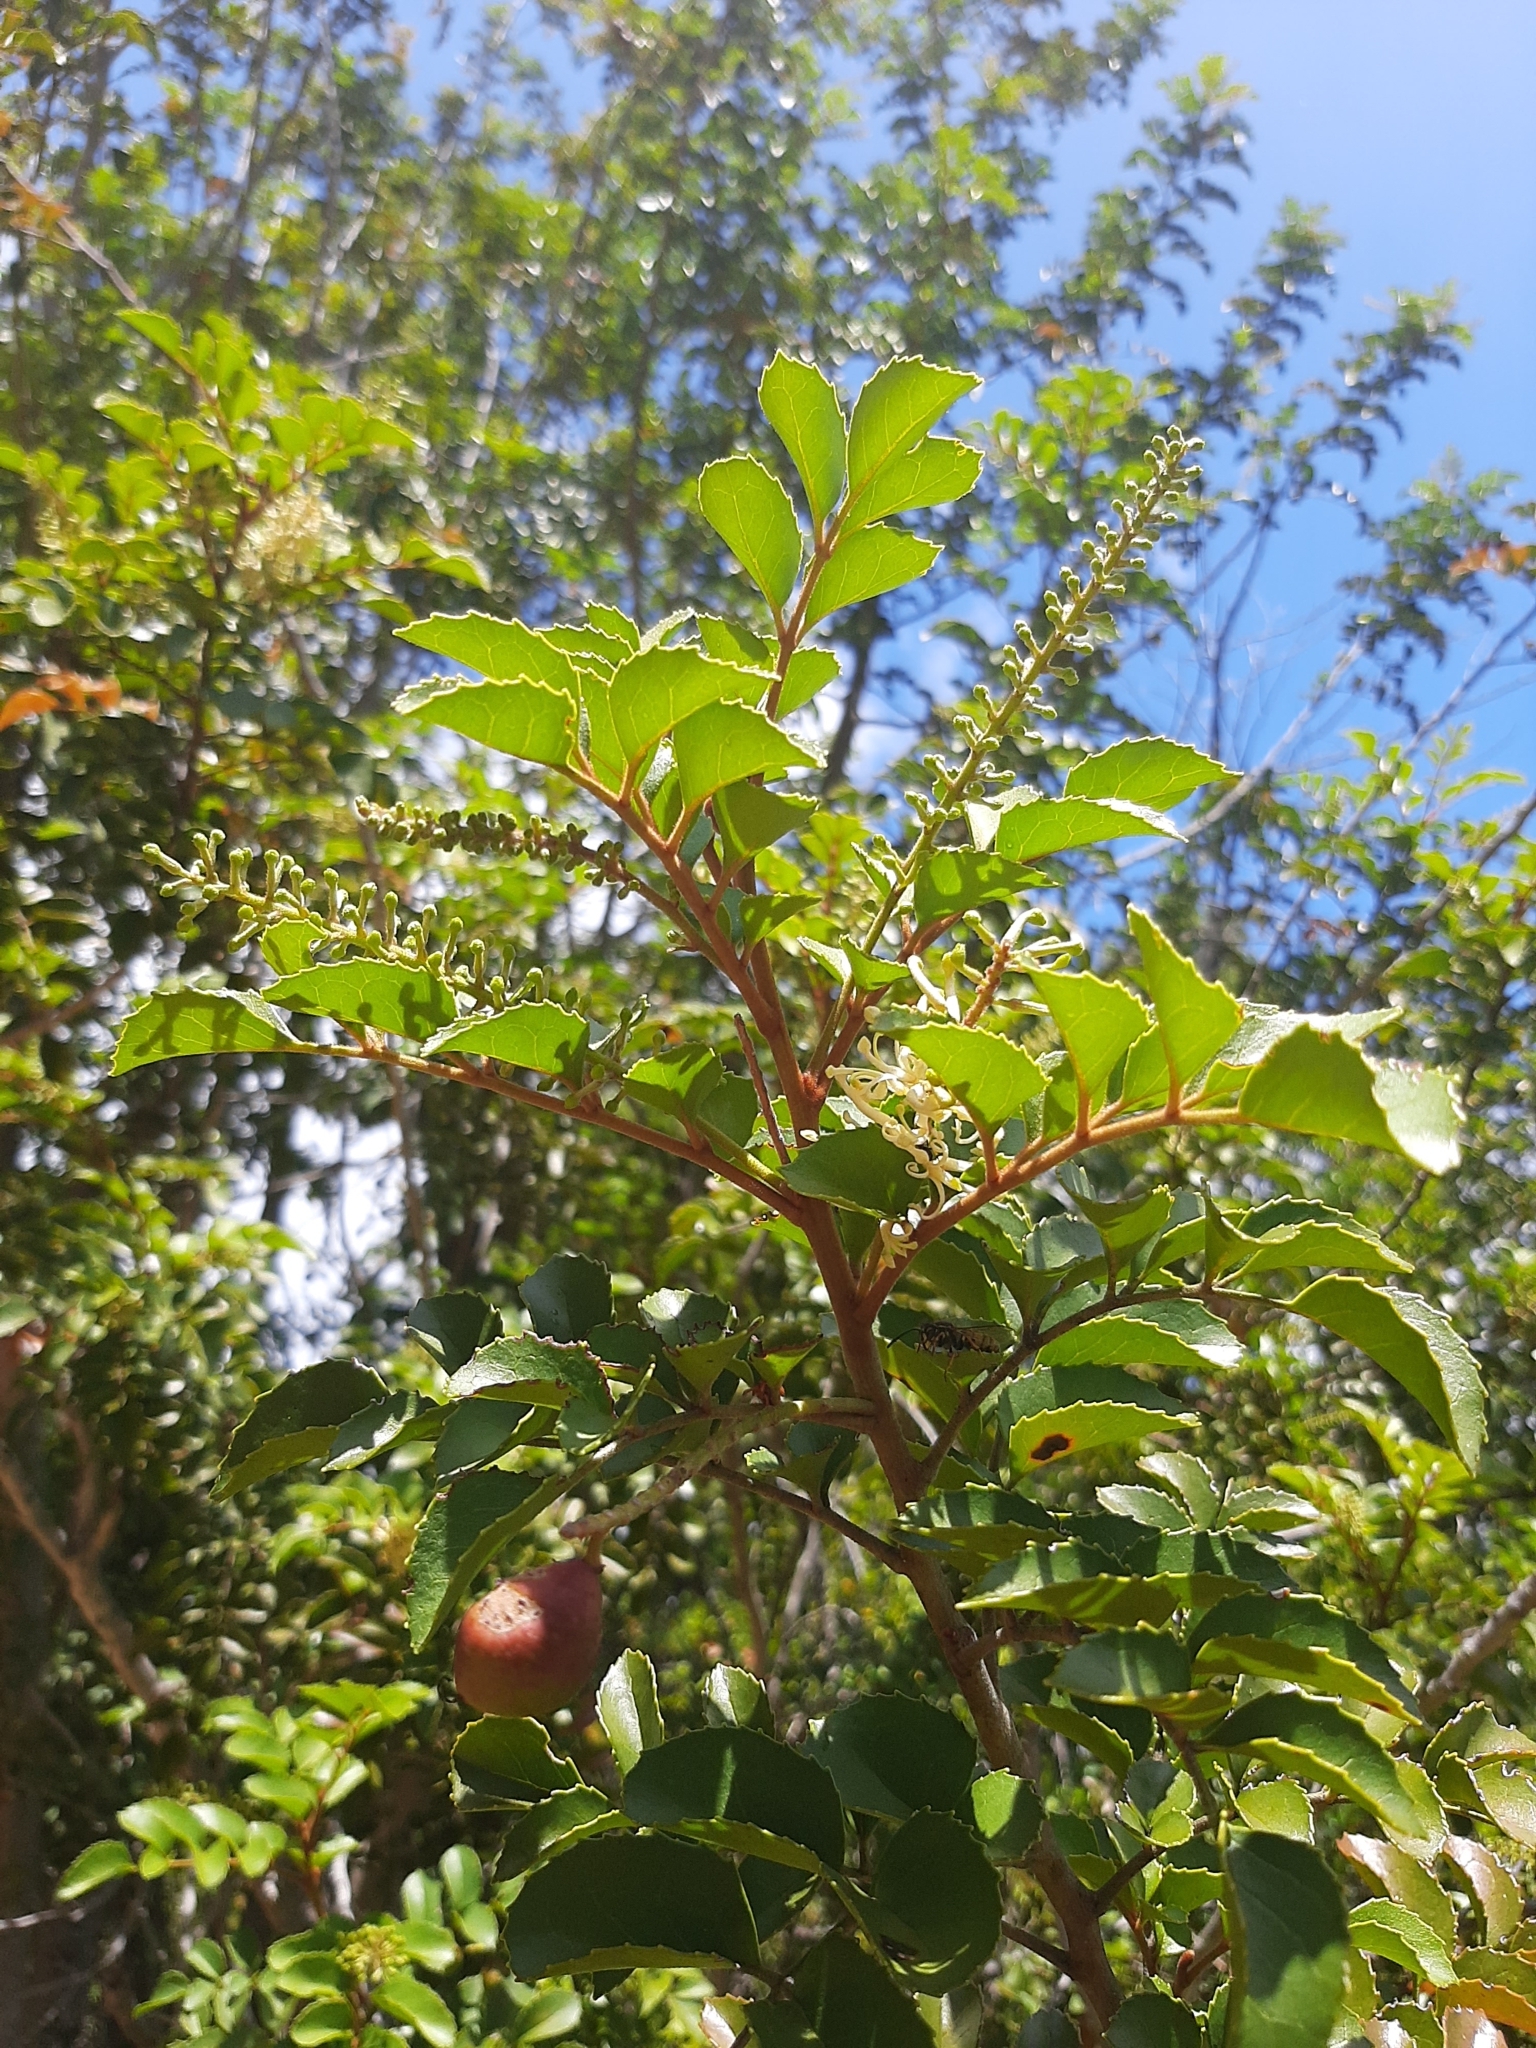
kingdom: Plantae
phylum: Tracheophyta
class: Magnoliopsida
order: Proteales
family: Proteaceae
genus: Gevuina
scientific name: Gevuina avellana
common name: Chilean hazel
